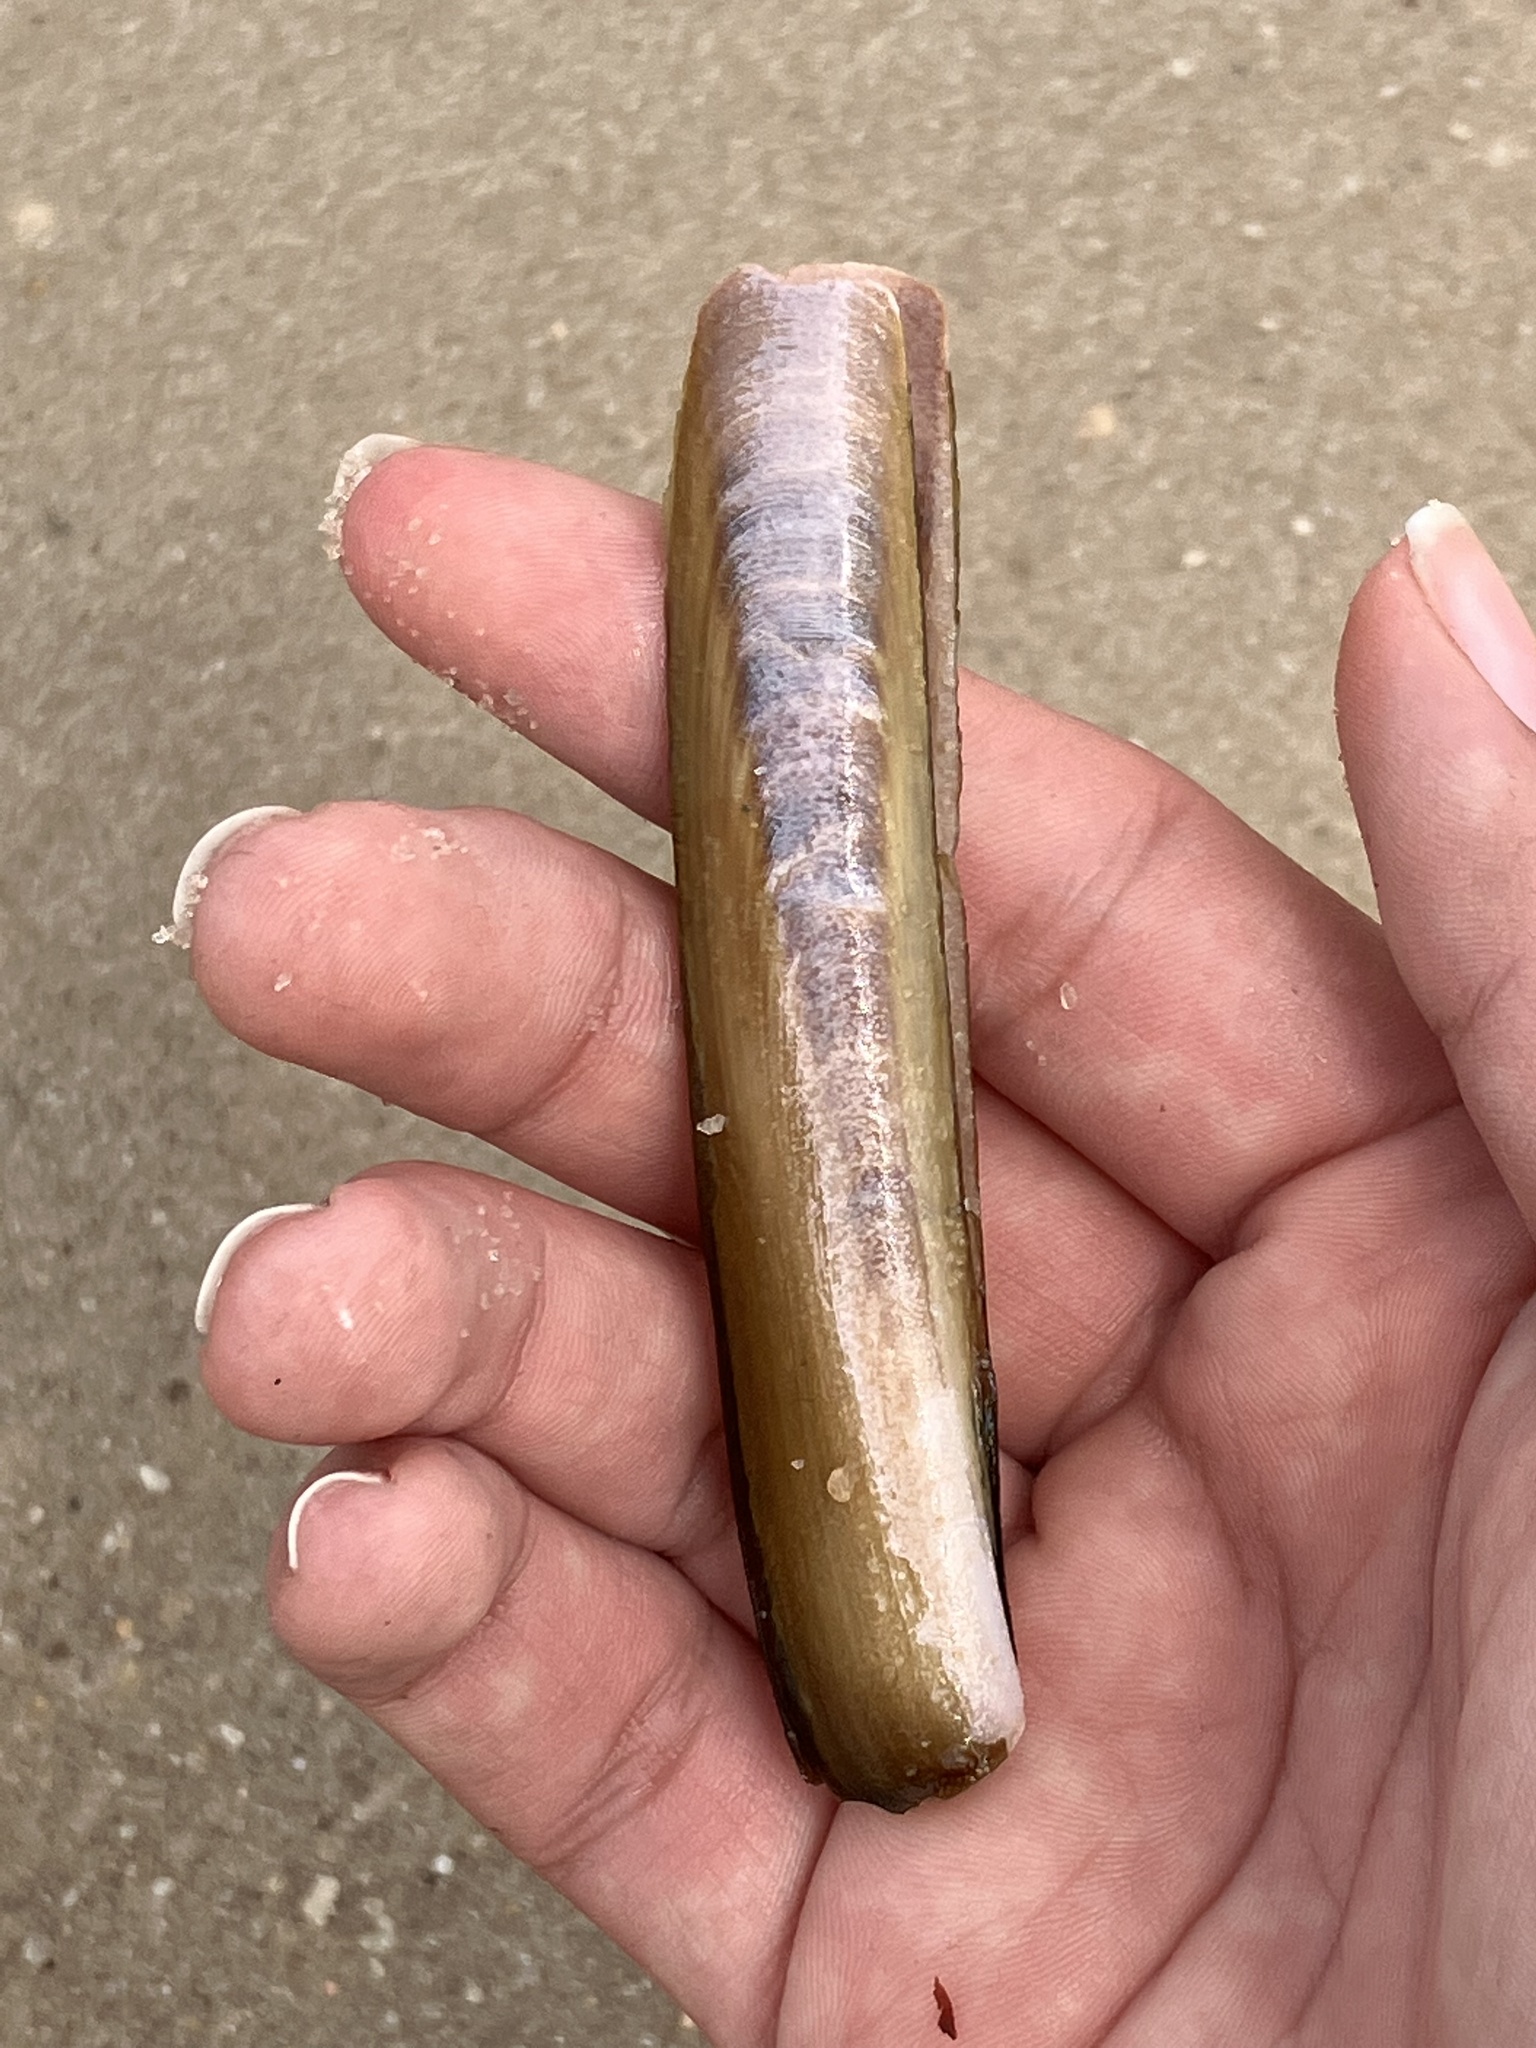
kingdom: Animalia
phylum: Mollusca
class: Bivalvia
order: Adapedonta
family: Pharidae
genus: Ensis
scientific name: Ensis leei
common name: American jack knife clam
